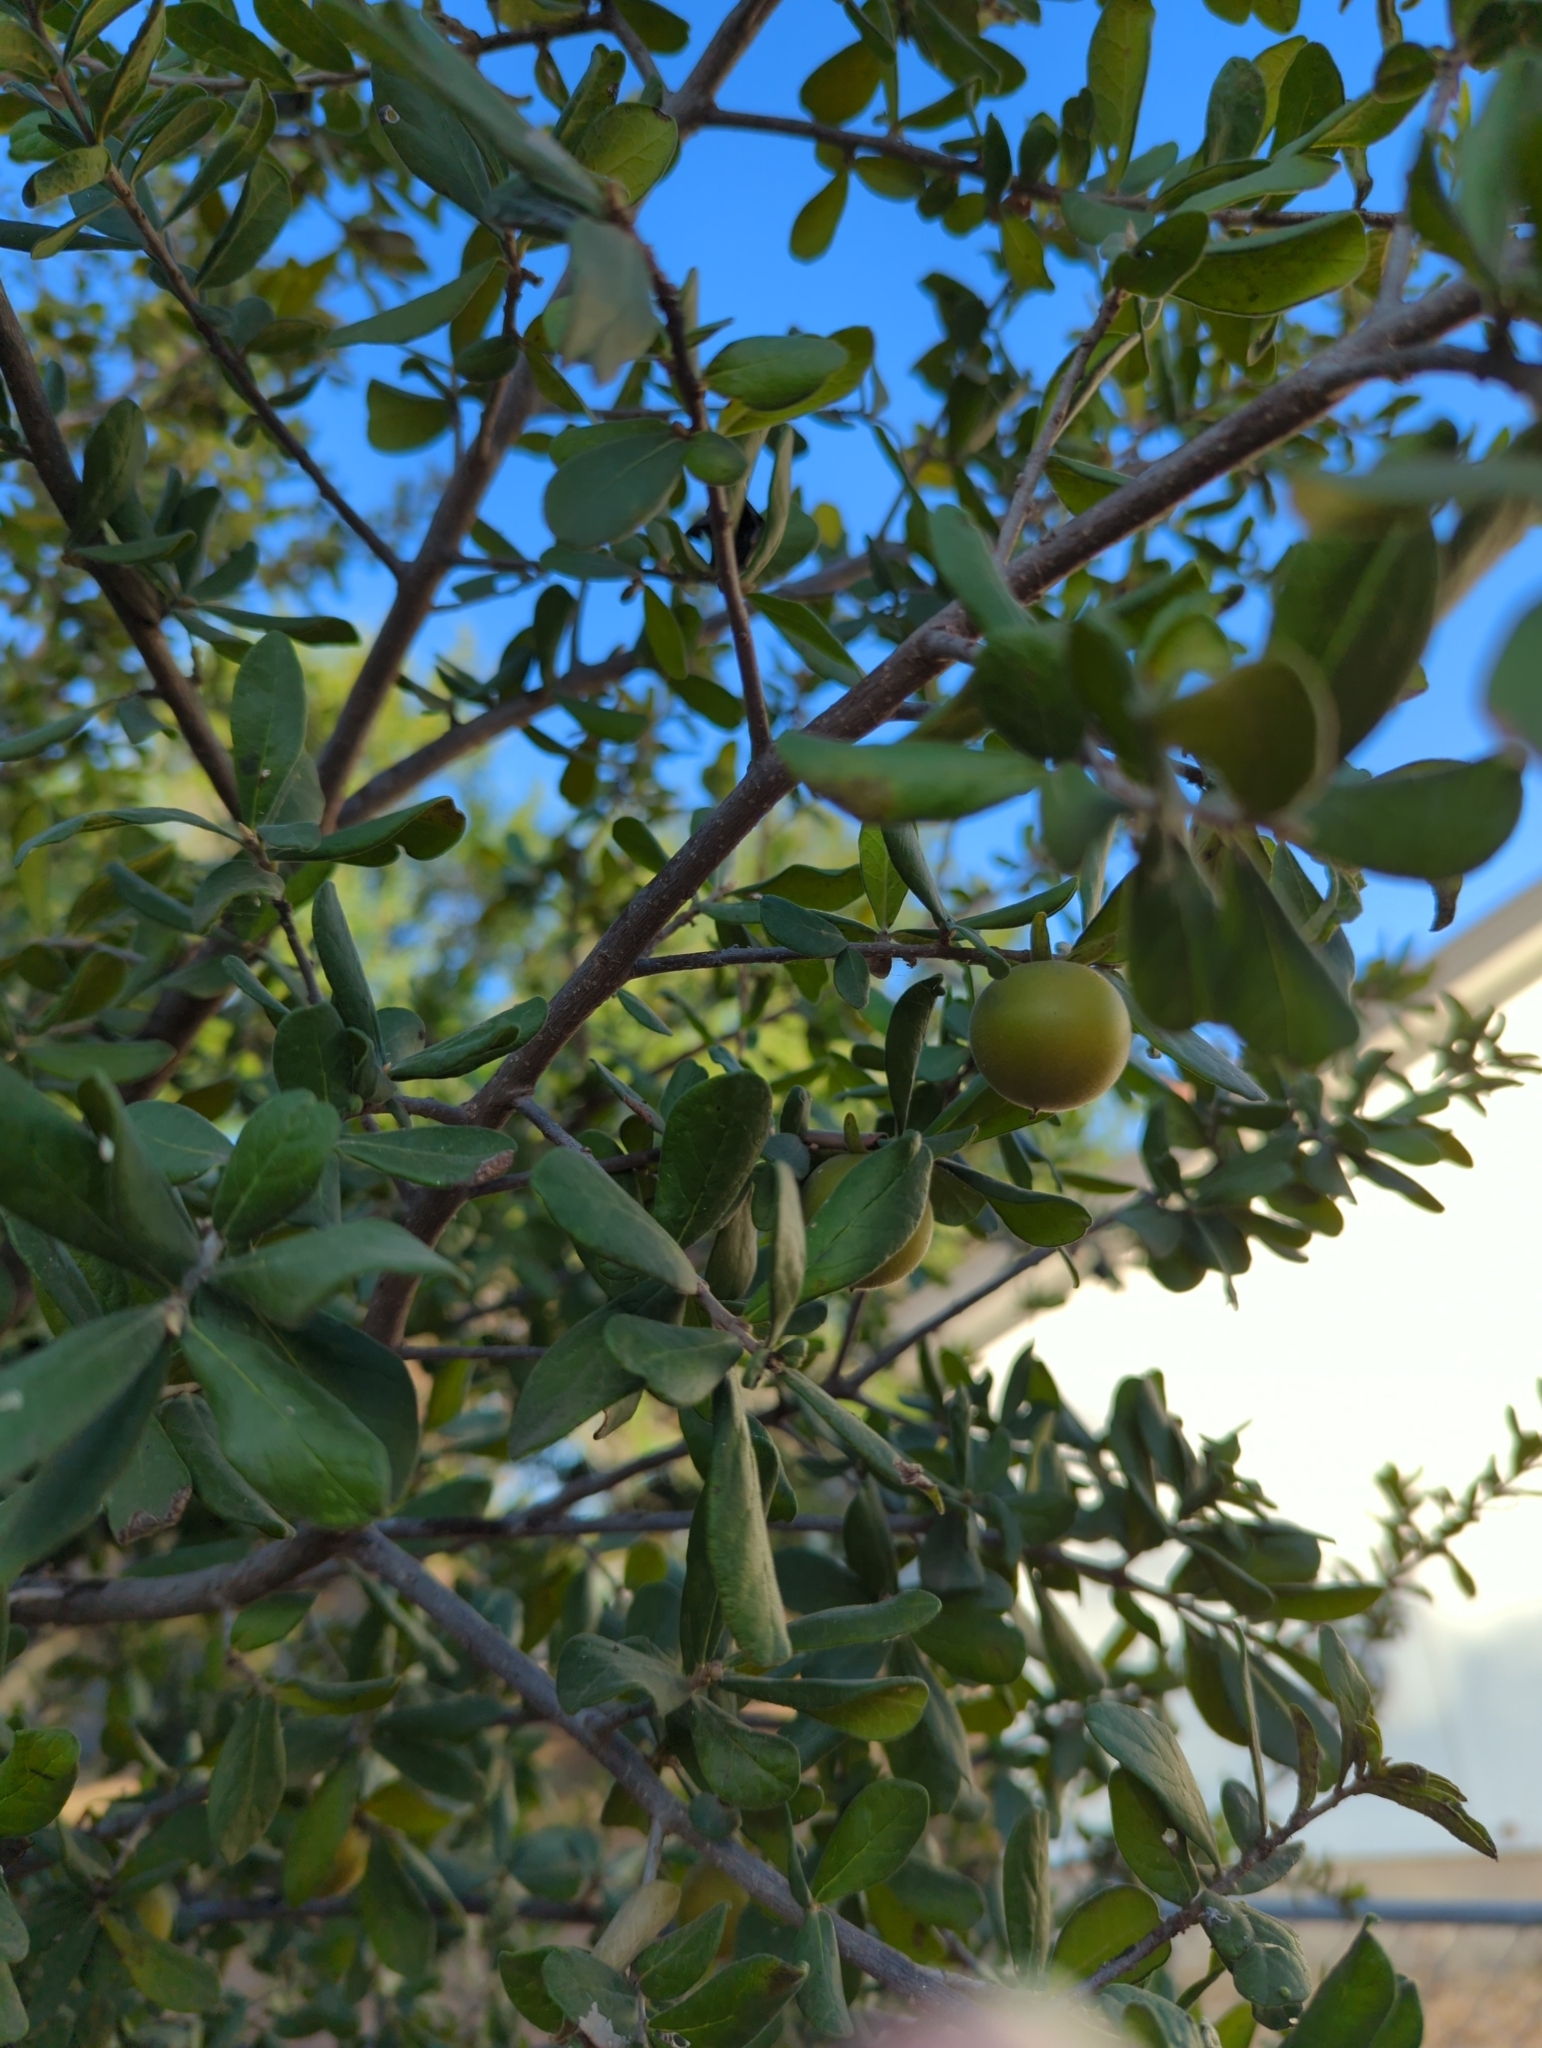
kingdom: Plantae
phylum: Tracheophyta
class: Magnoliopsida
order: Ericales
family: Ebenaceae
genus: Diospyros
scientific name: Diospyros texana
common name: Texas persimmon
